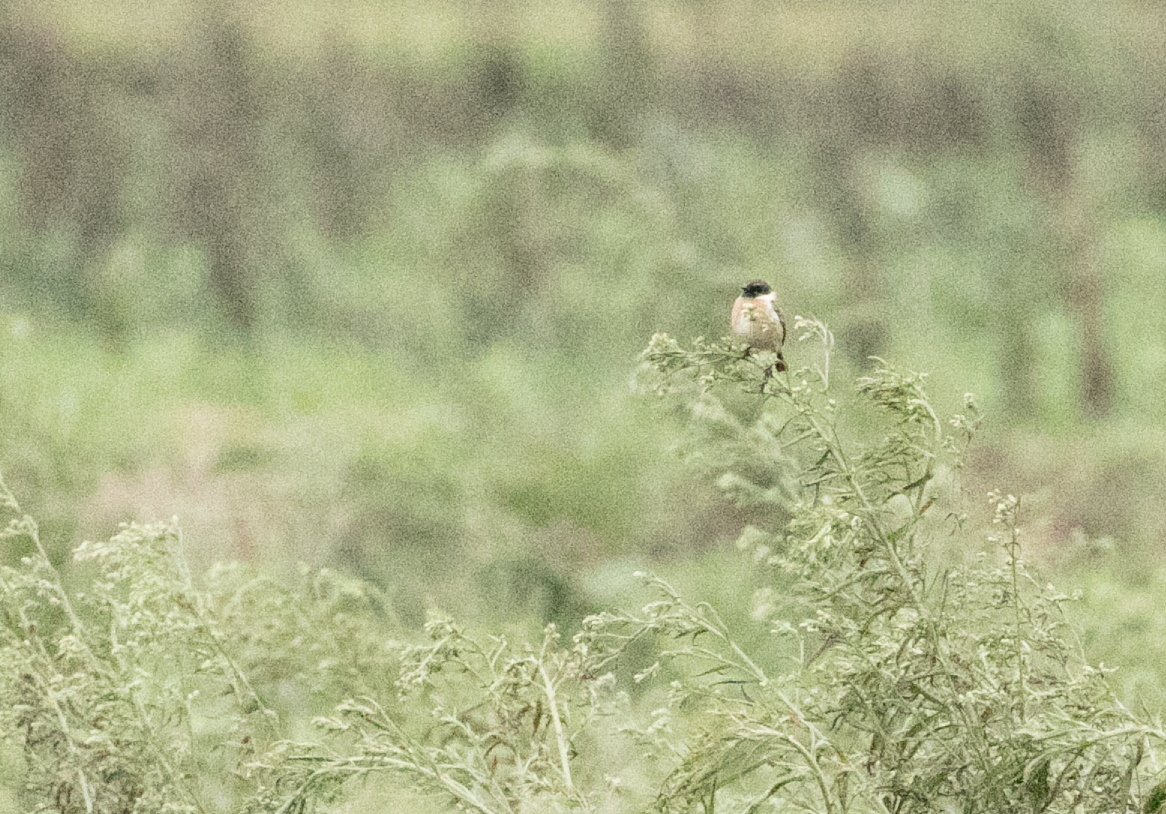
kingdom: Animalia
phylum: Chordata
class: Aves
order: Passeriformes
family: Muscicapidae
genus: Saxicola
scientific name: Saxicola rubicola
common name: European stonechat
